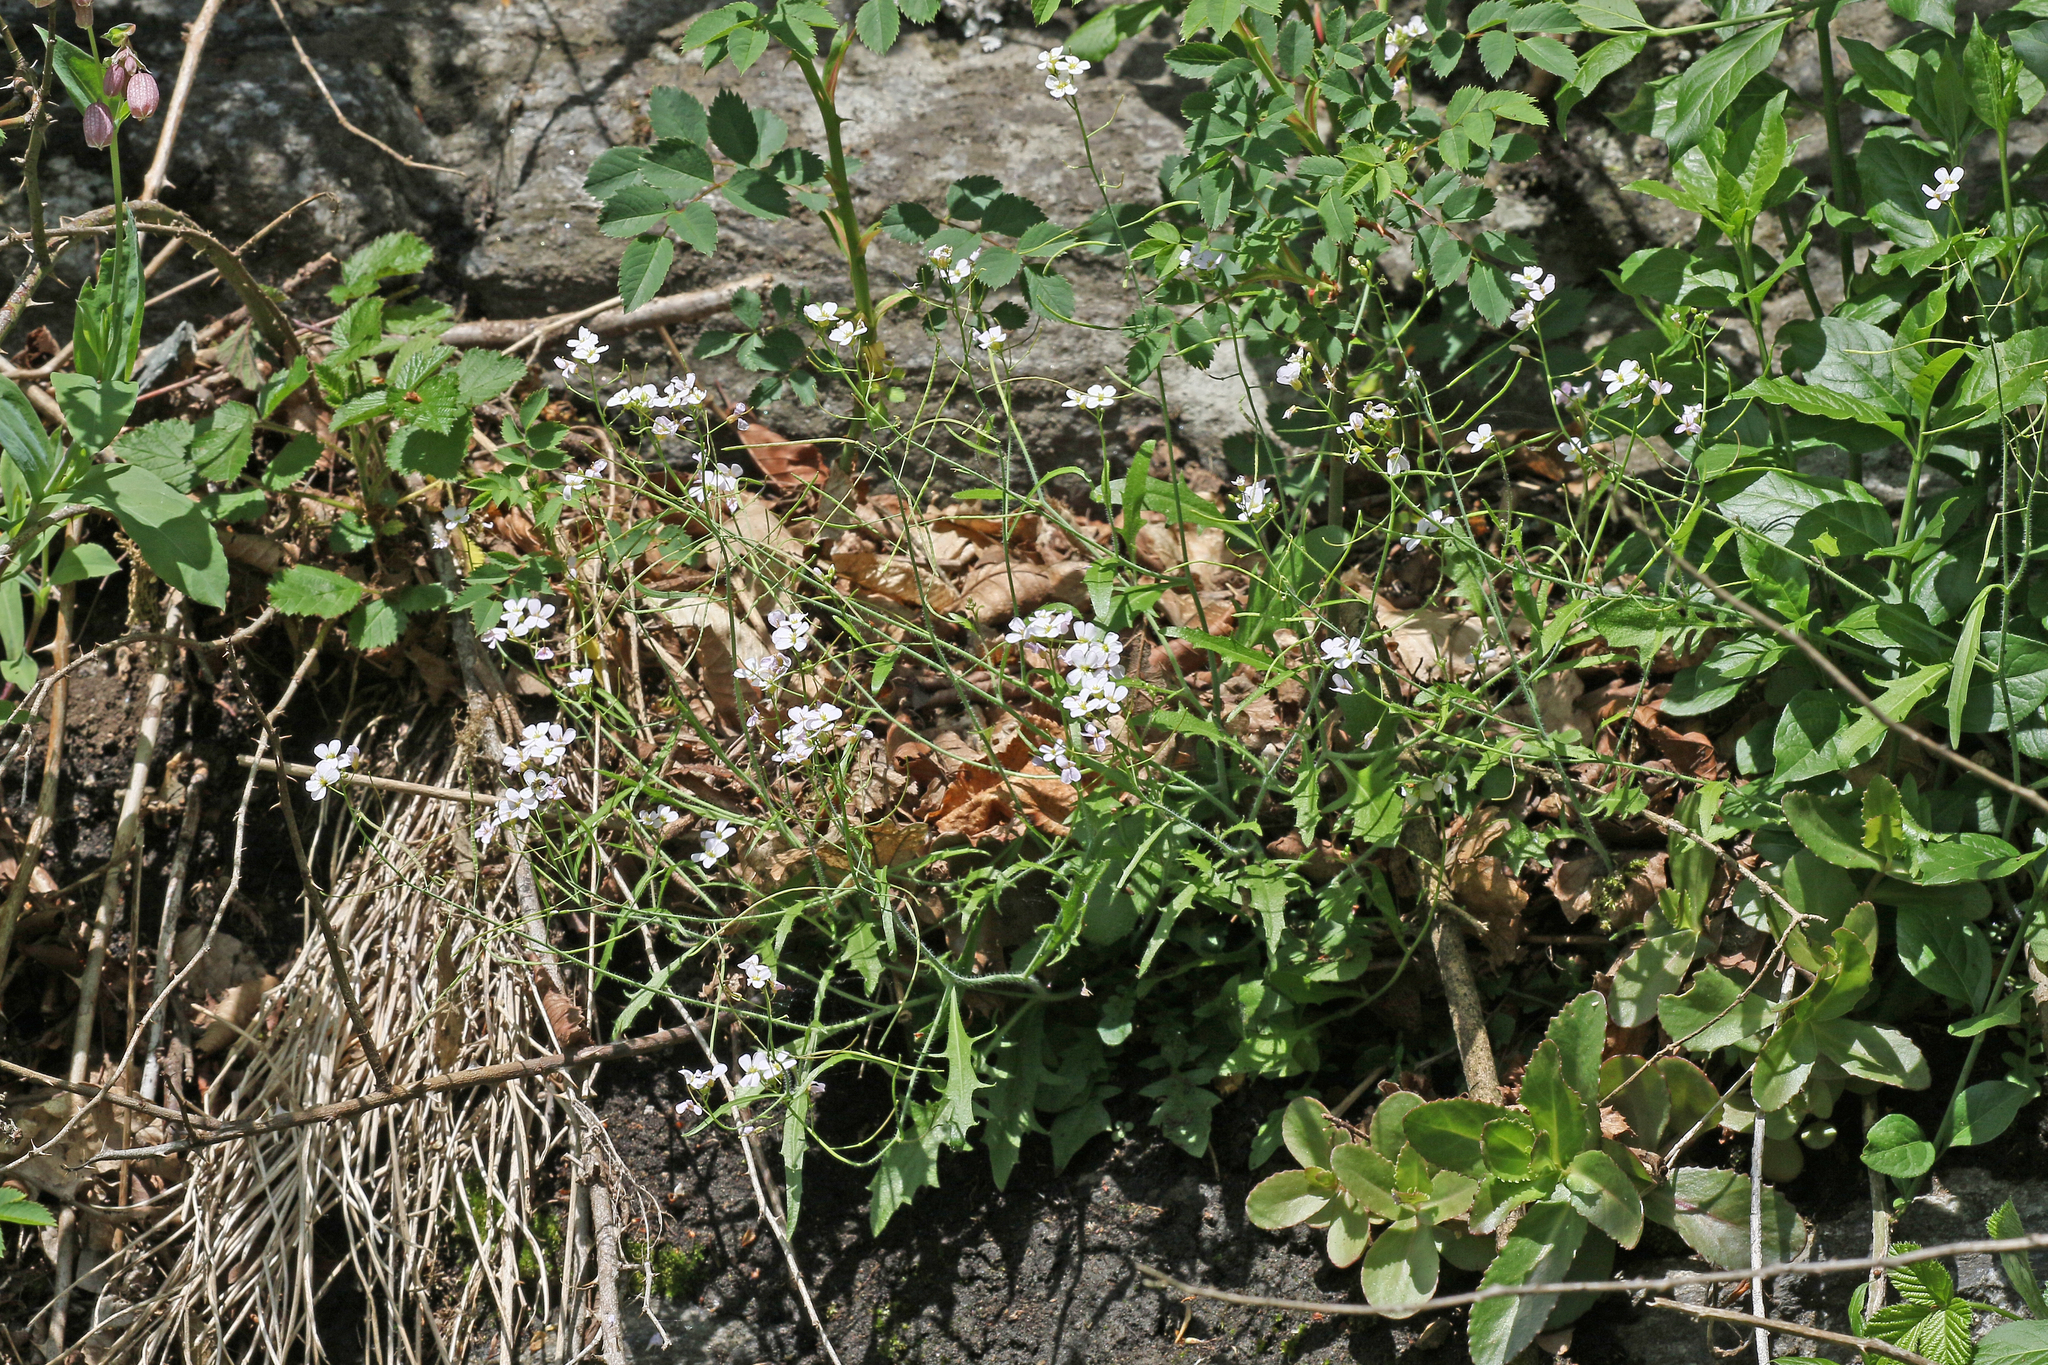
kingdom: Plantae
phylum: Tracheophyta
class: Magnoliopsida
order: Brassicales
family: Brassicaceae
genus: Arabidopsis
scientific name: Arabidopsis arenosa
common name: Sand rock-cress
